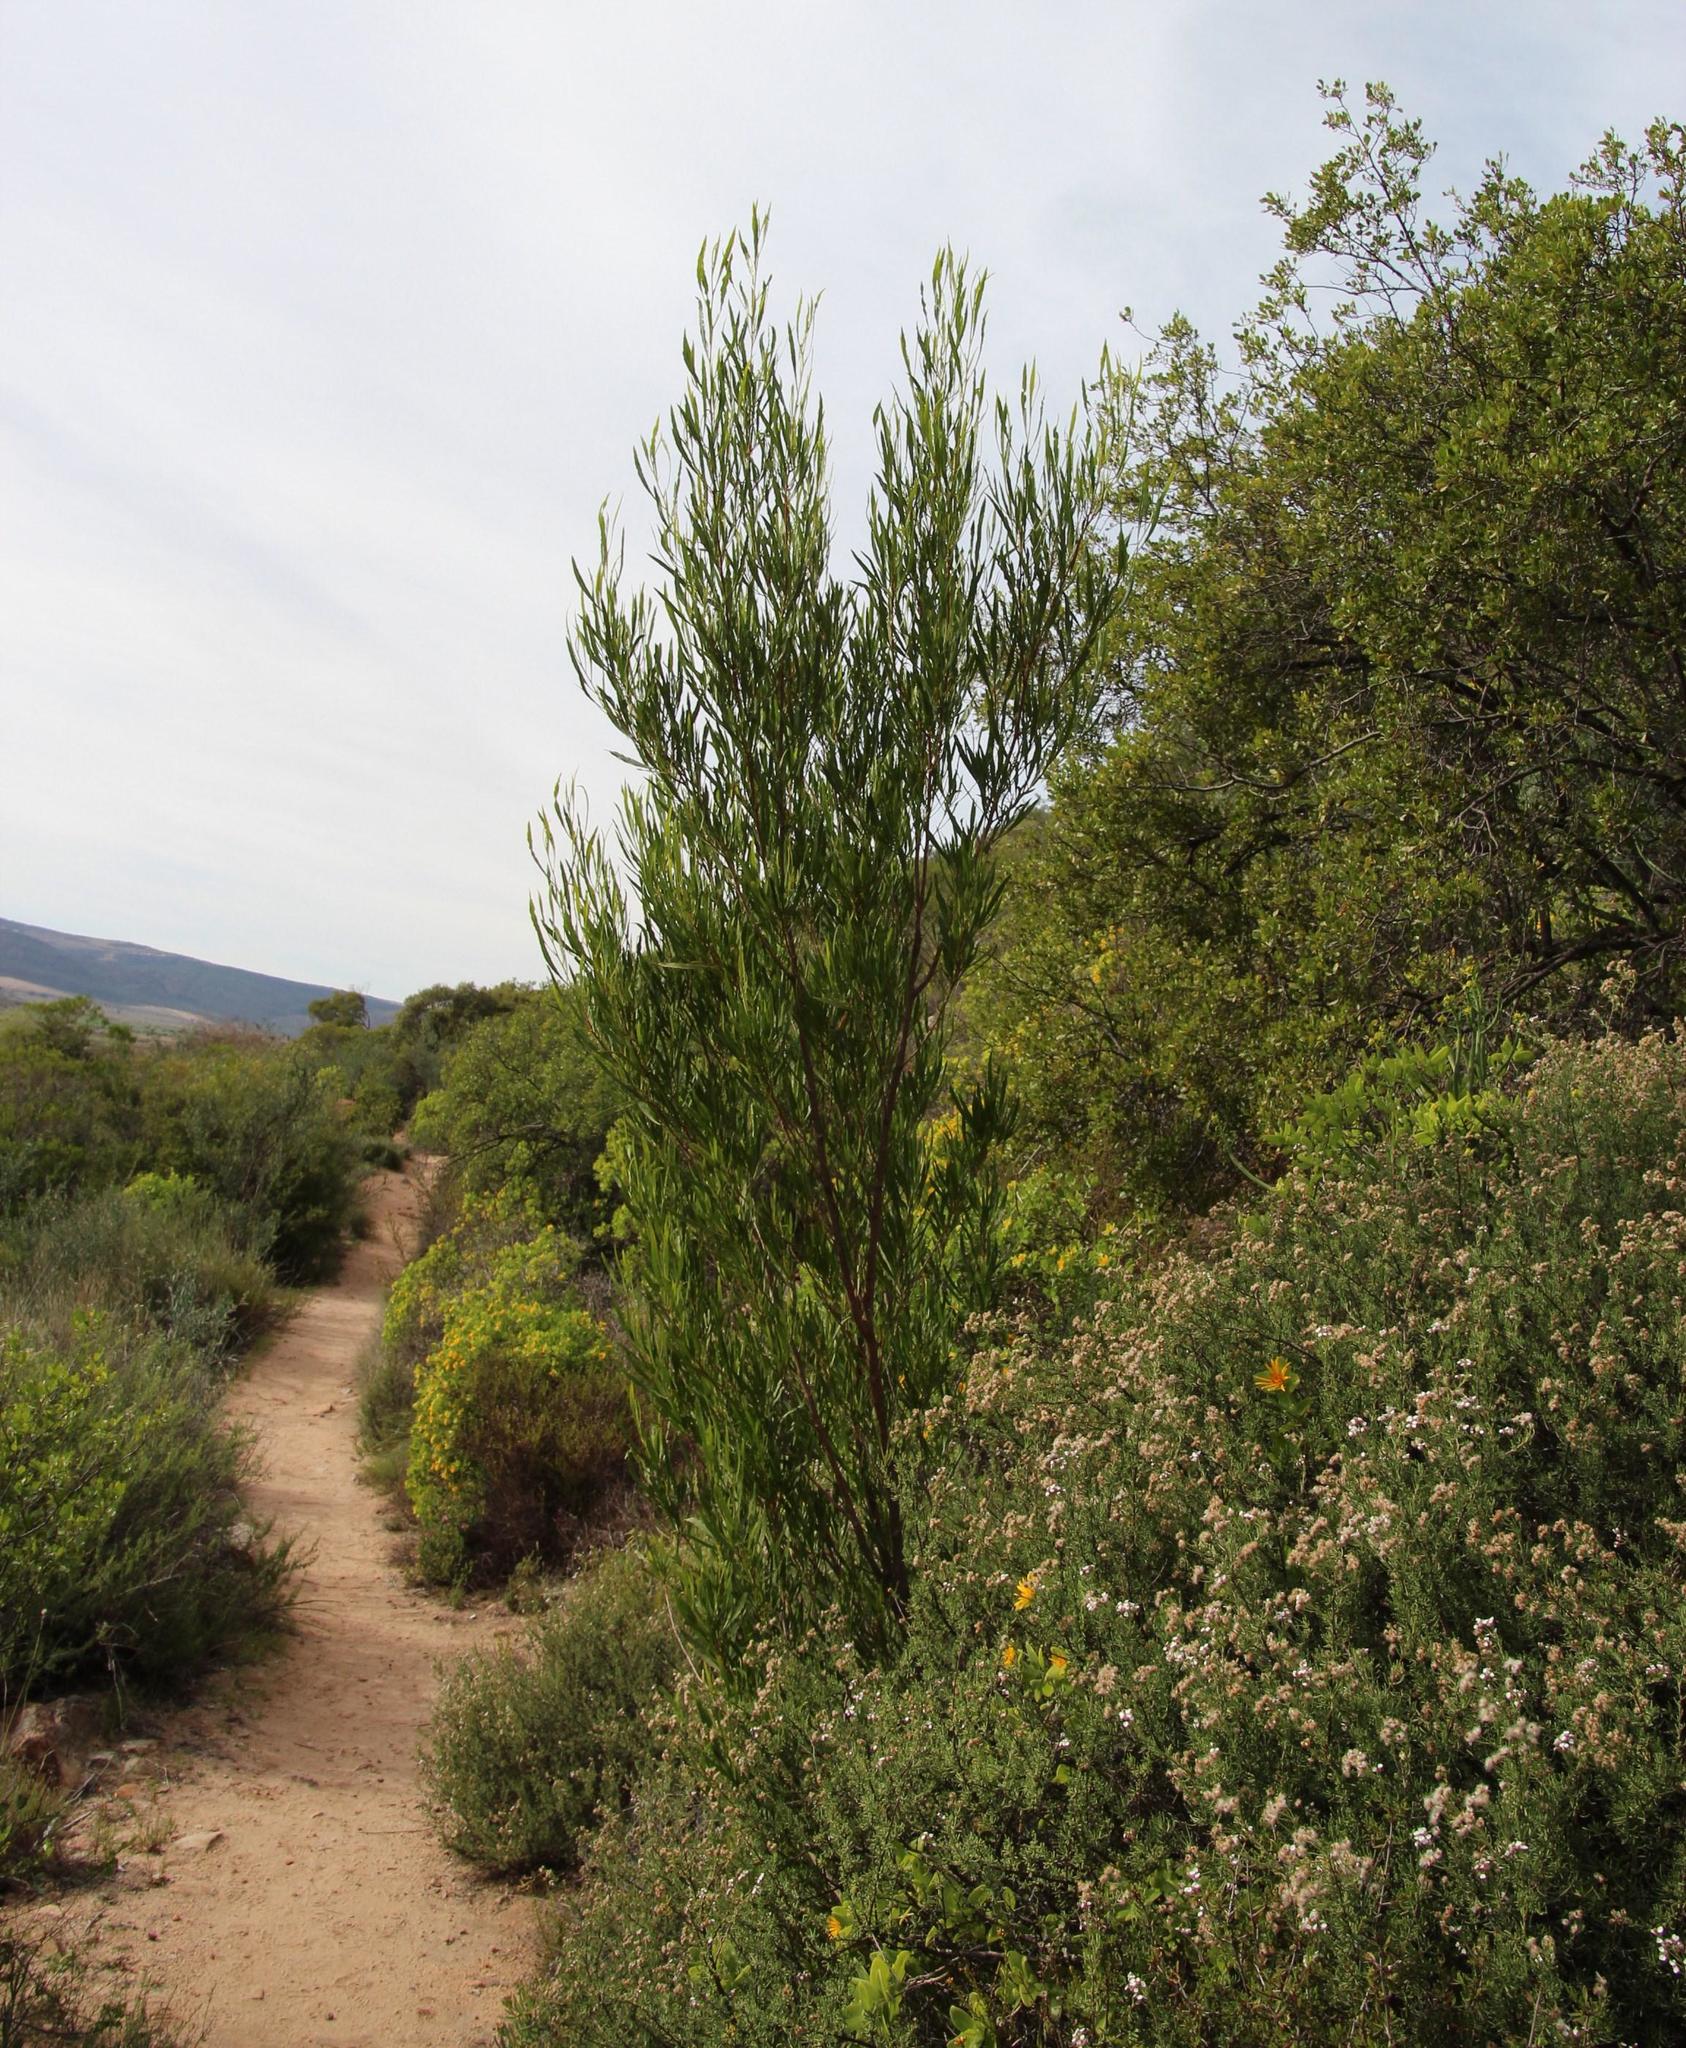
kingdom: Plantae
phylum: Tracheophyta
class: Magnoliopsida
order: Sapindales
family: Sapindaceae
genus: Dodonaea
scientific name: Dodonaea viscosa
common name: Hopbush
